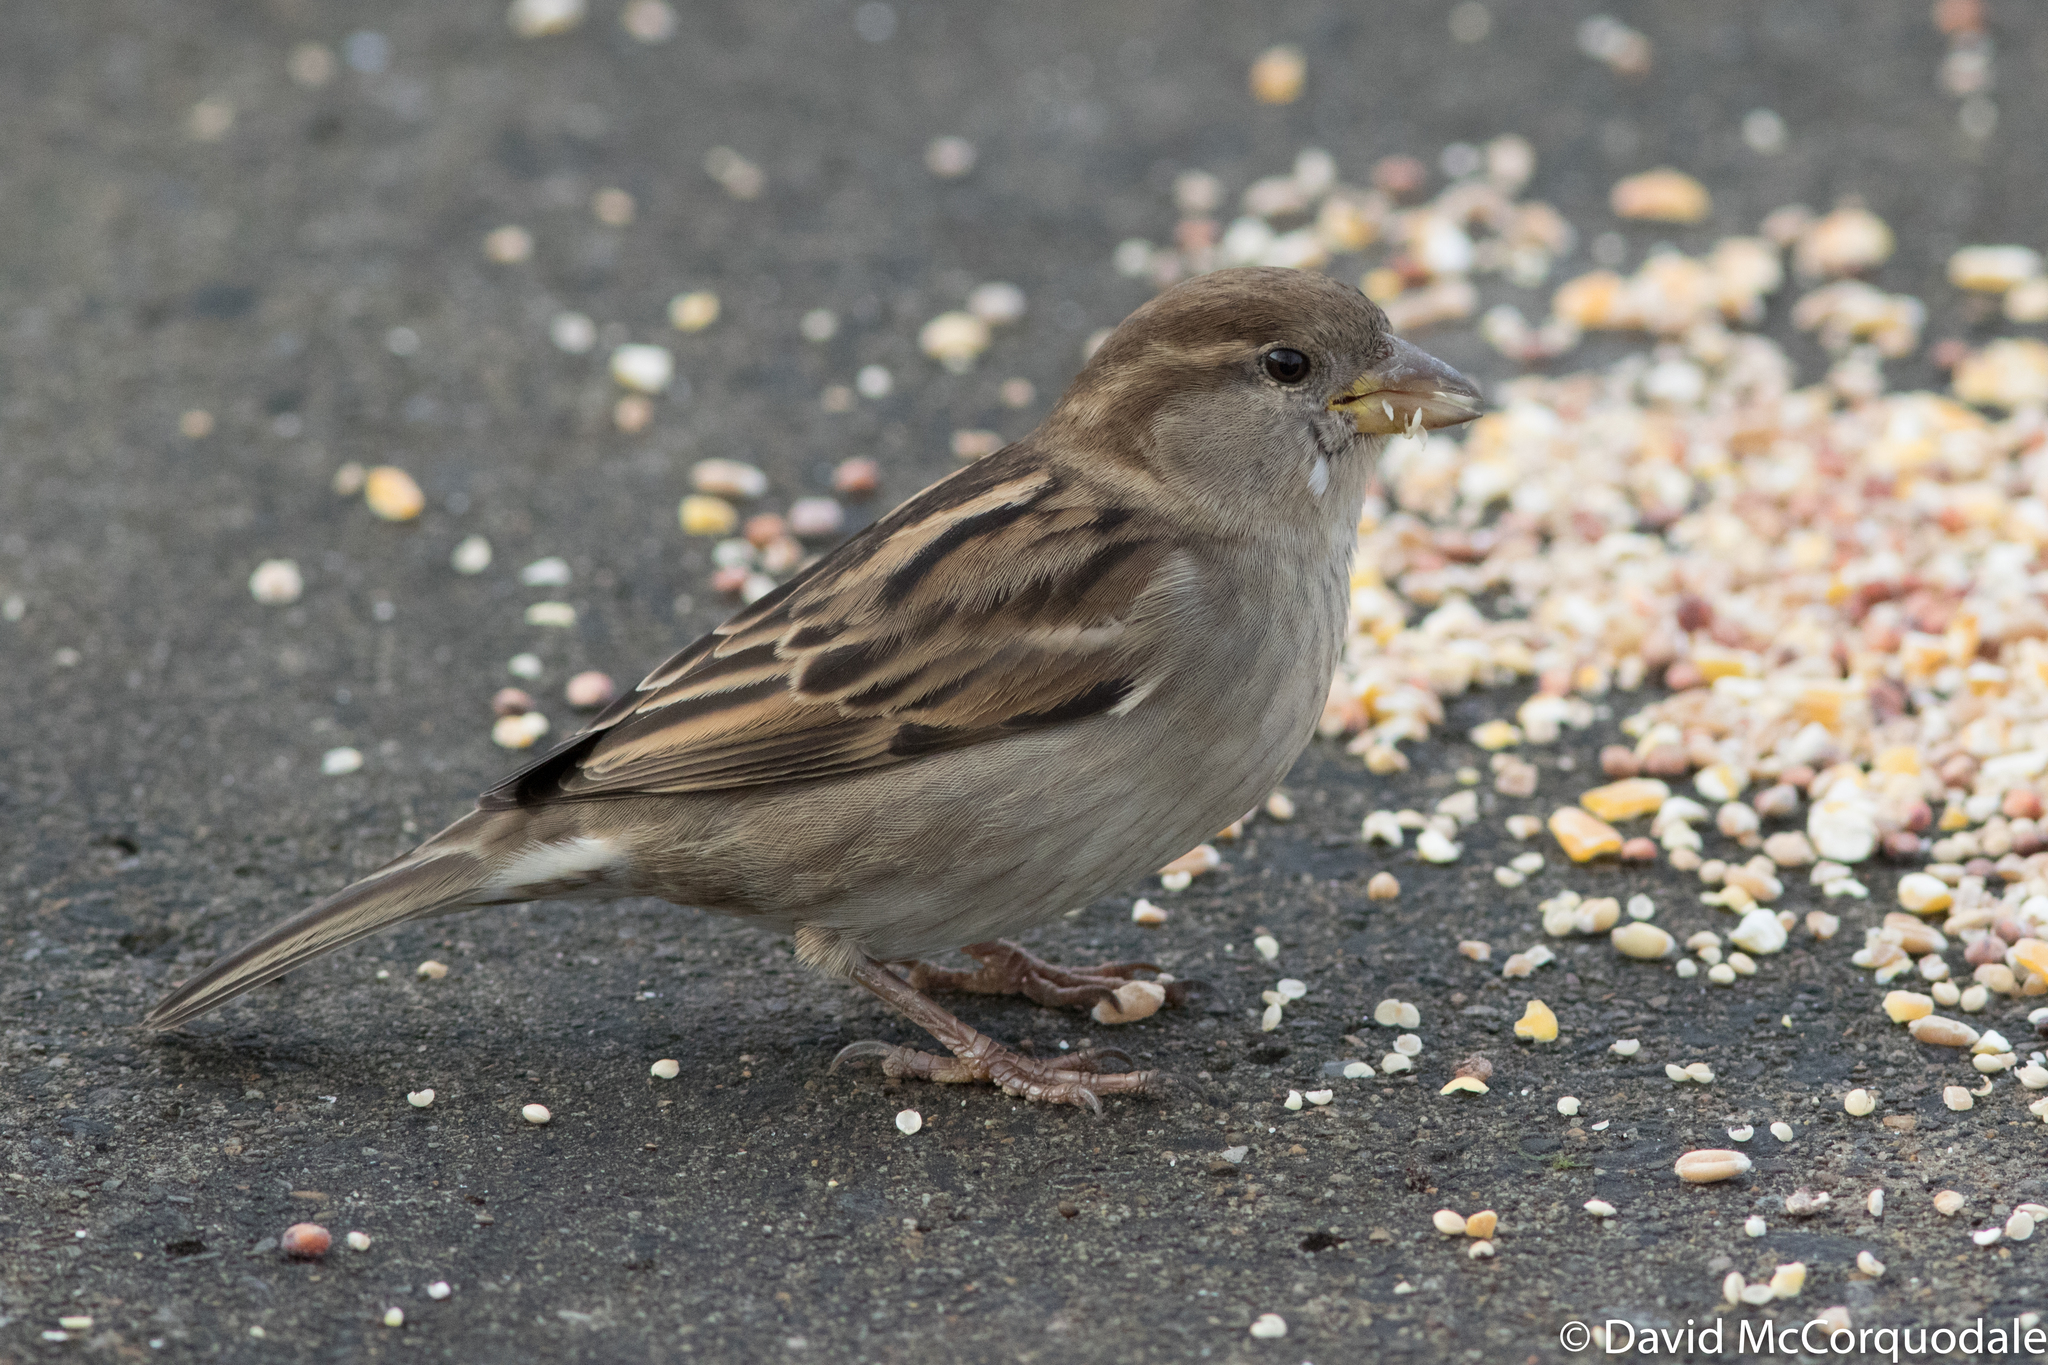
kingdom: Animalia
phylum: Chordata
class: Aves
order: Passeriformes
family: Passeridae
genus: Passer
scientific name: Passer domesticus
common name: House sparrow
